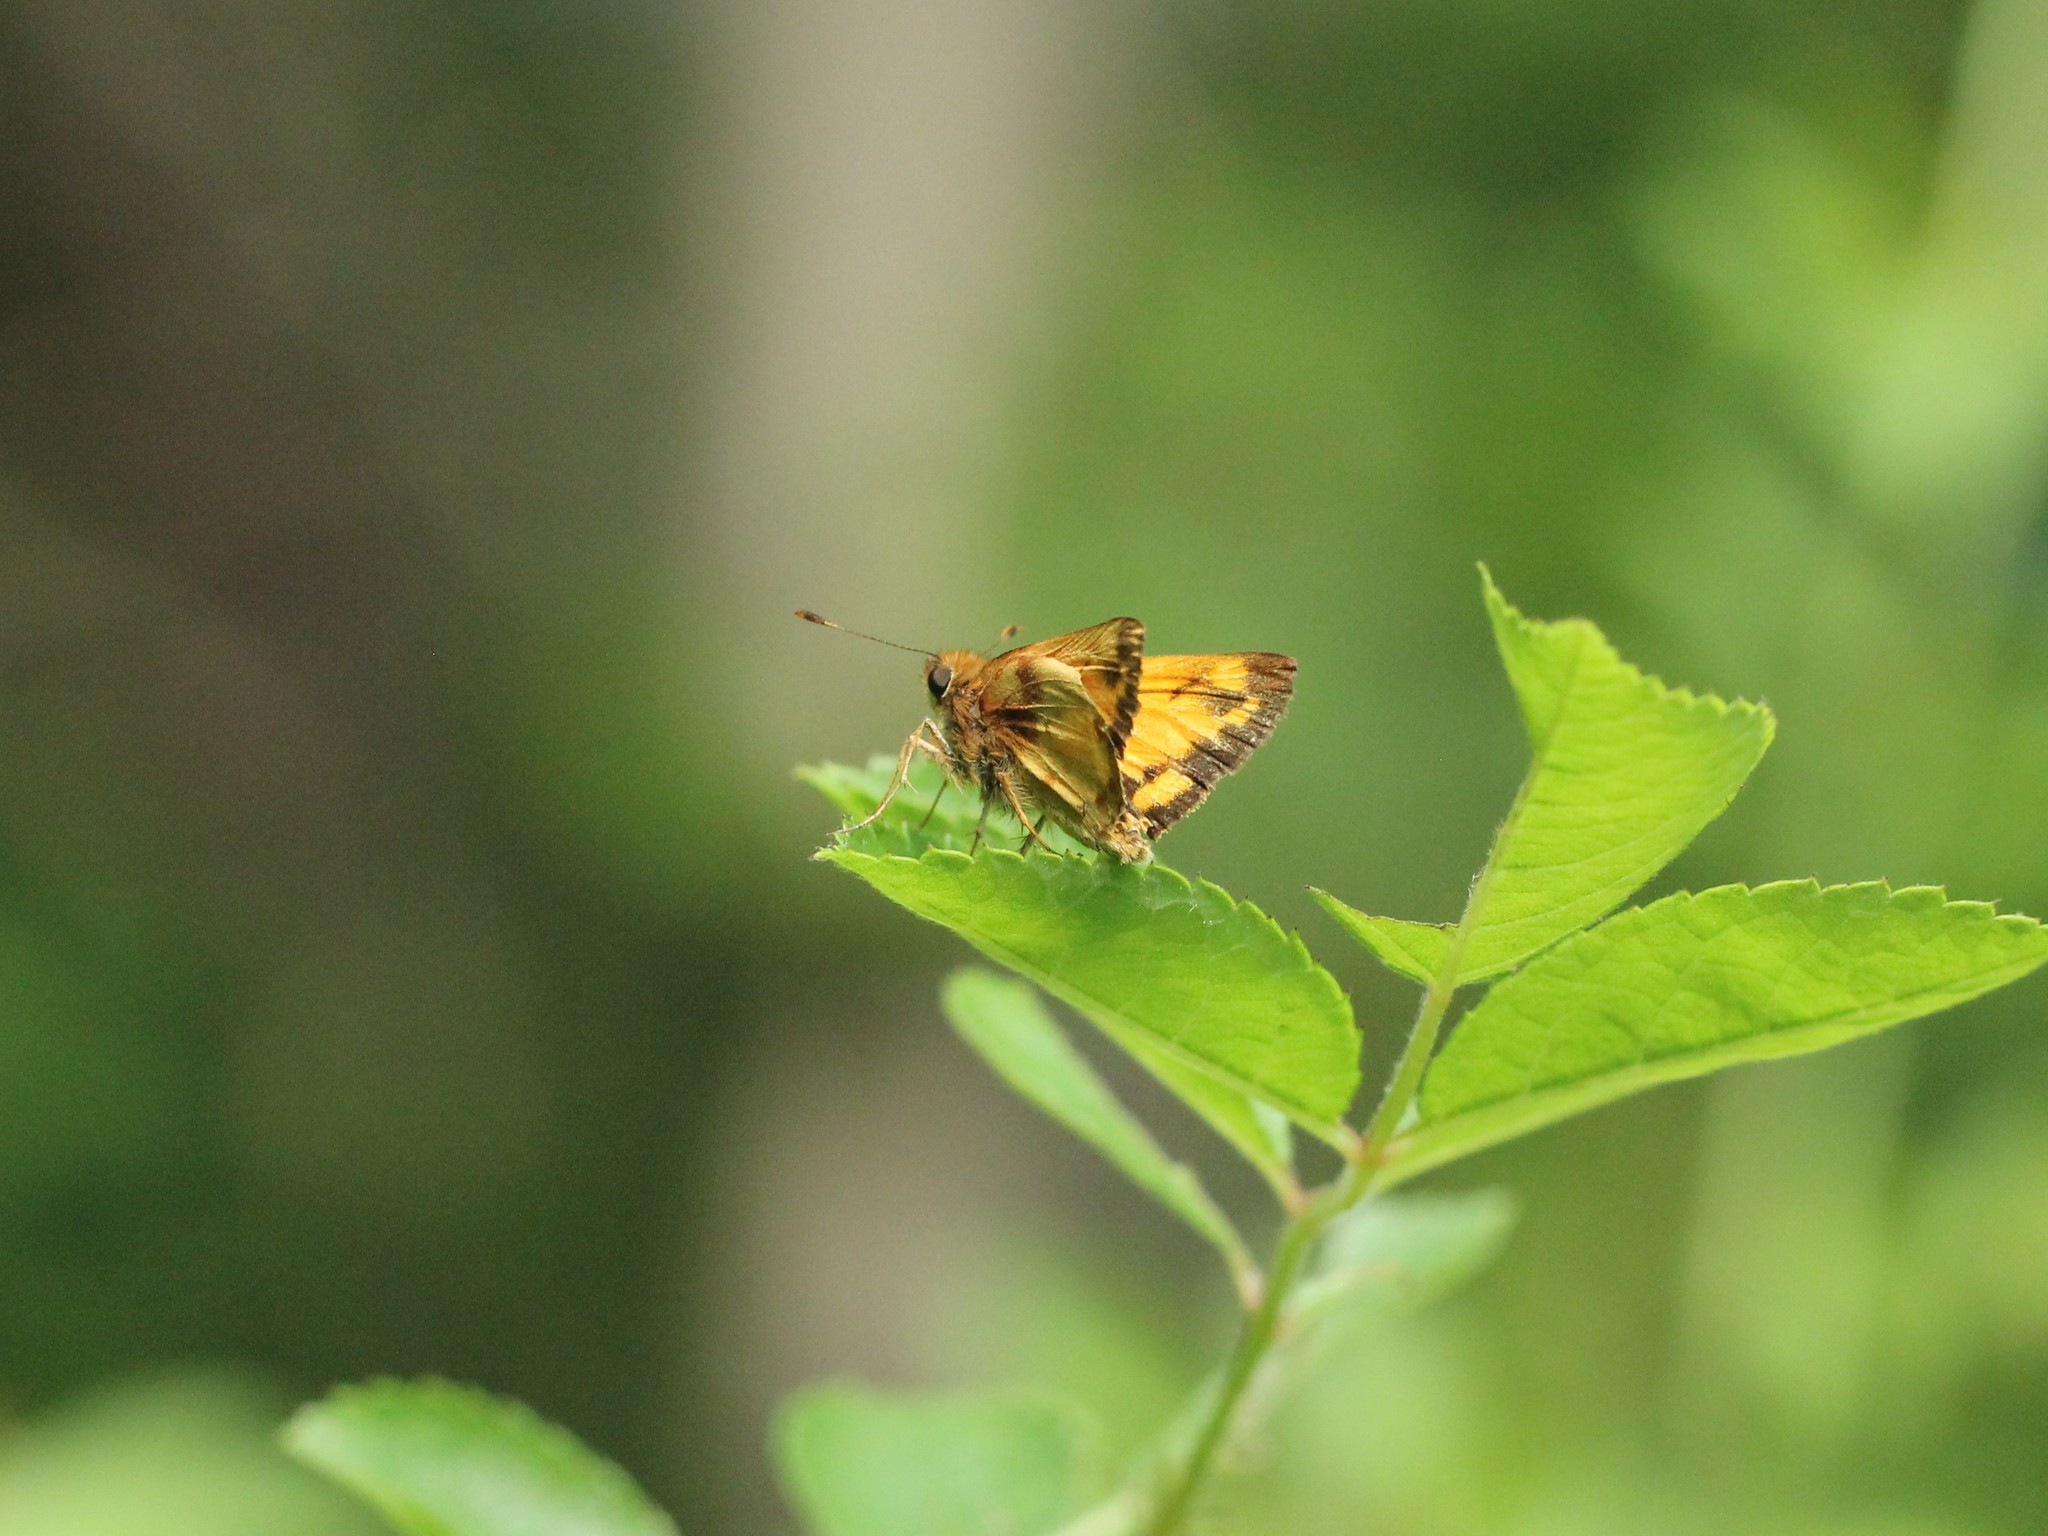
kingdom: Animalia
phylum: Arthropoda
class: Insecta
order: Lepidoptera
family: Hesperiidae
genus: Lon
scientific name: Lon zabulon
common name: Zabulon skipper
